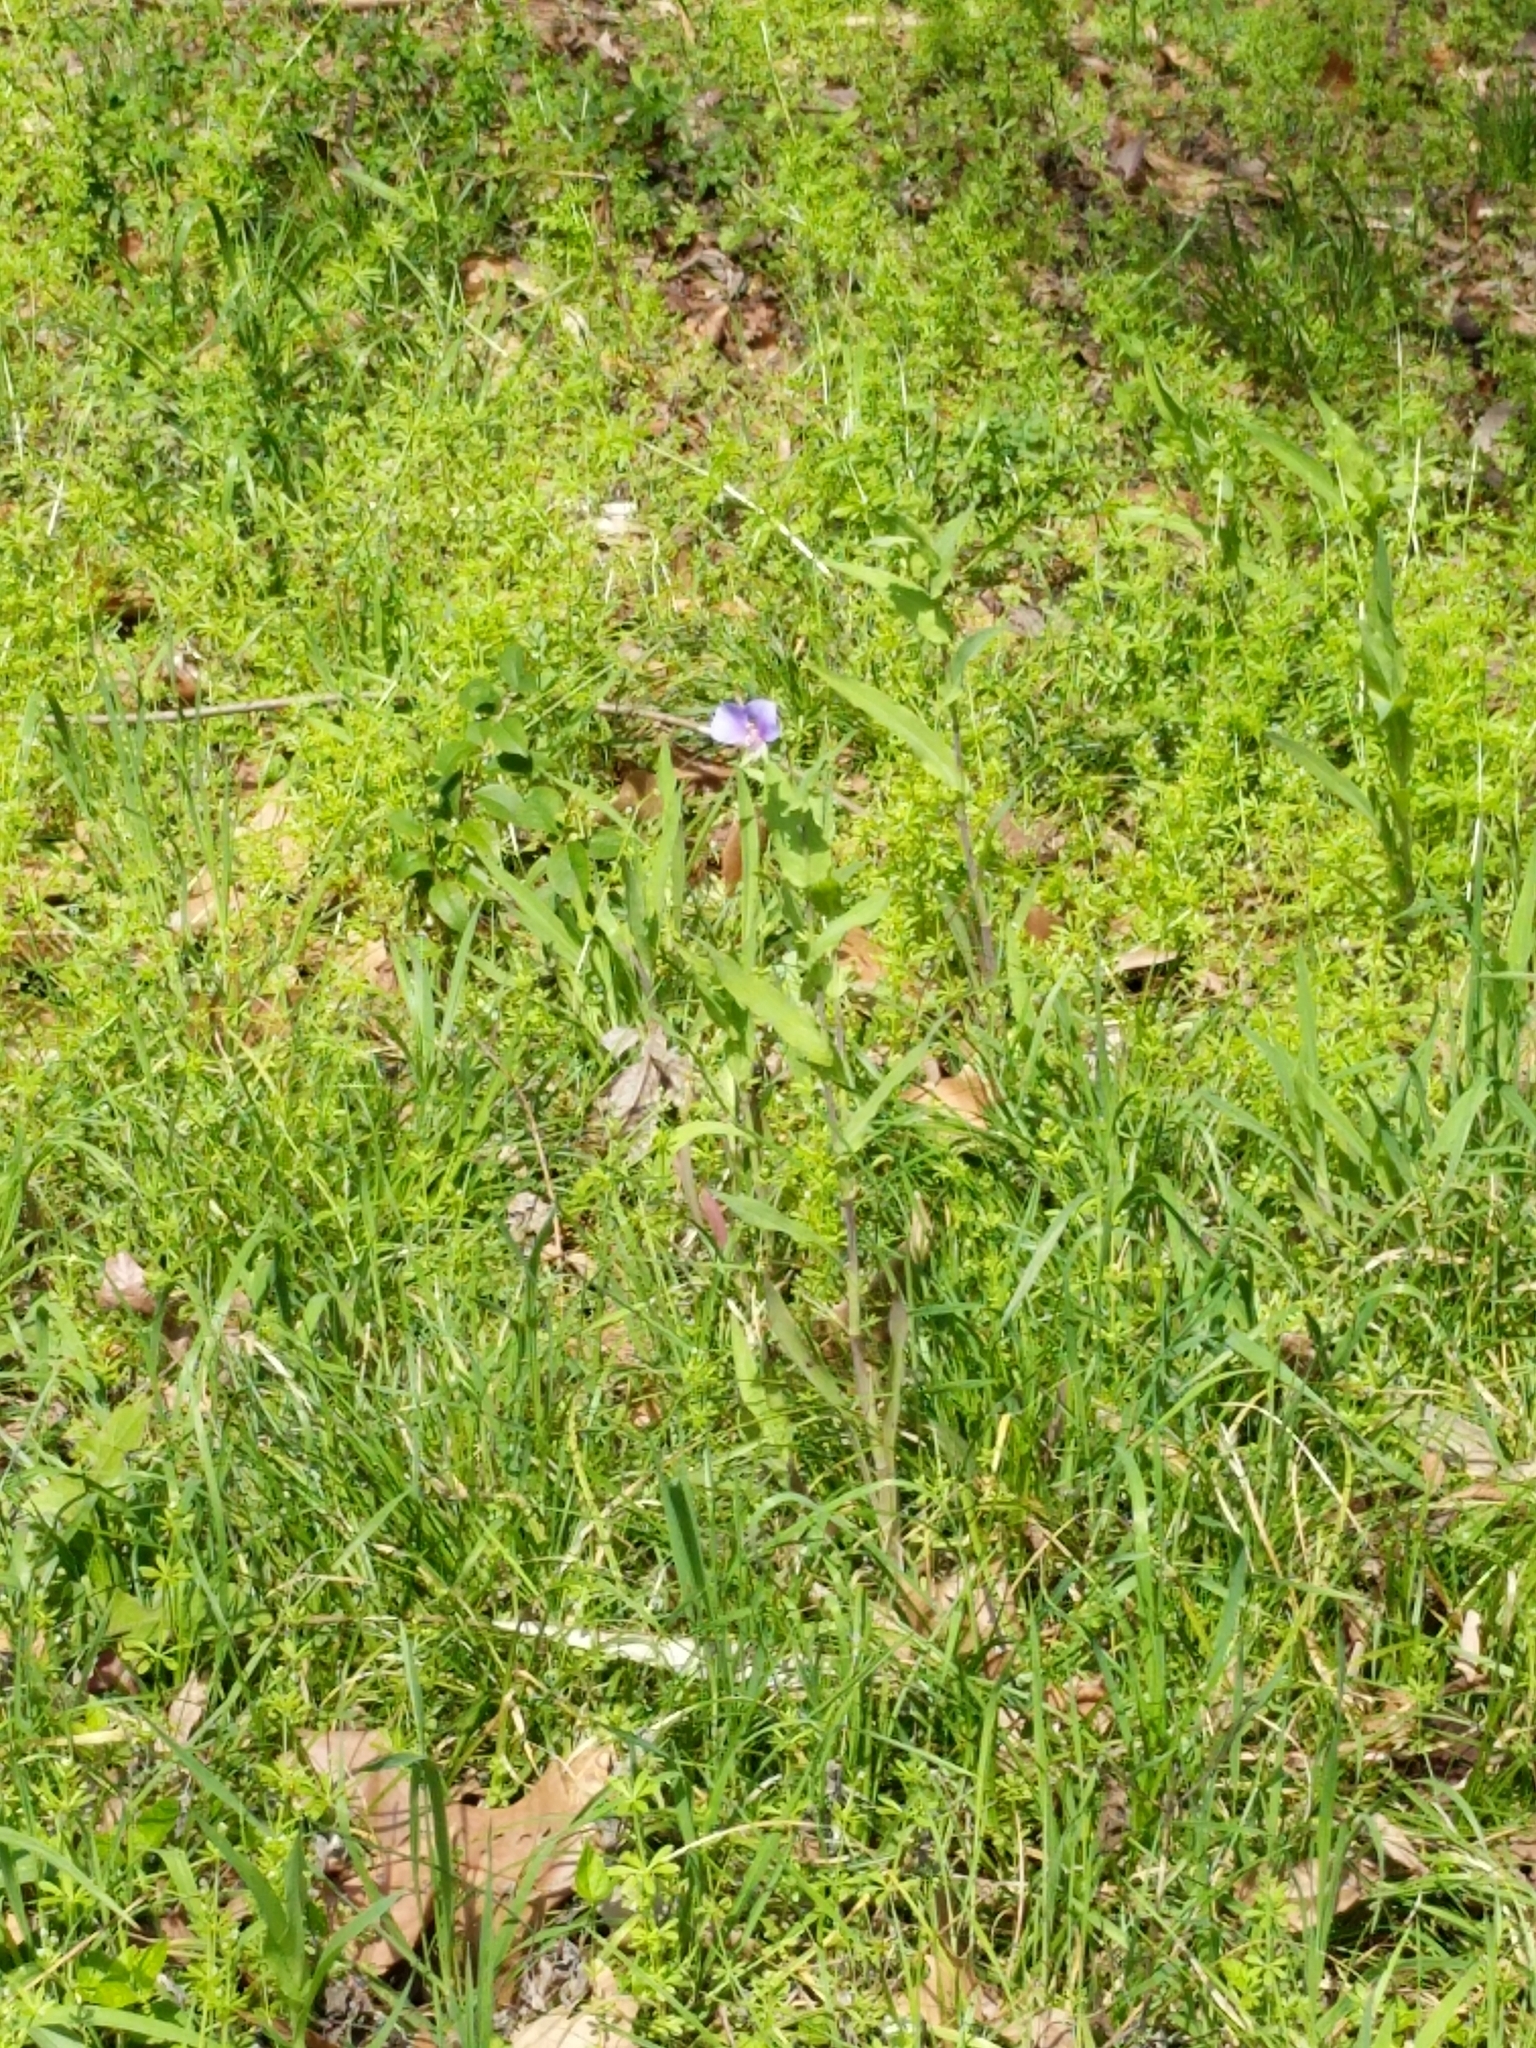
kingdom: Plantae
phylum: Tracheophyta
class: Liliopsida
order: Commelinales
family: Commelinaceae
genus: Tinantia
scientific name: Tinantia anomala
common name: False dayflower
